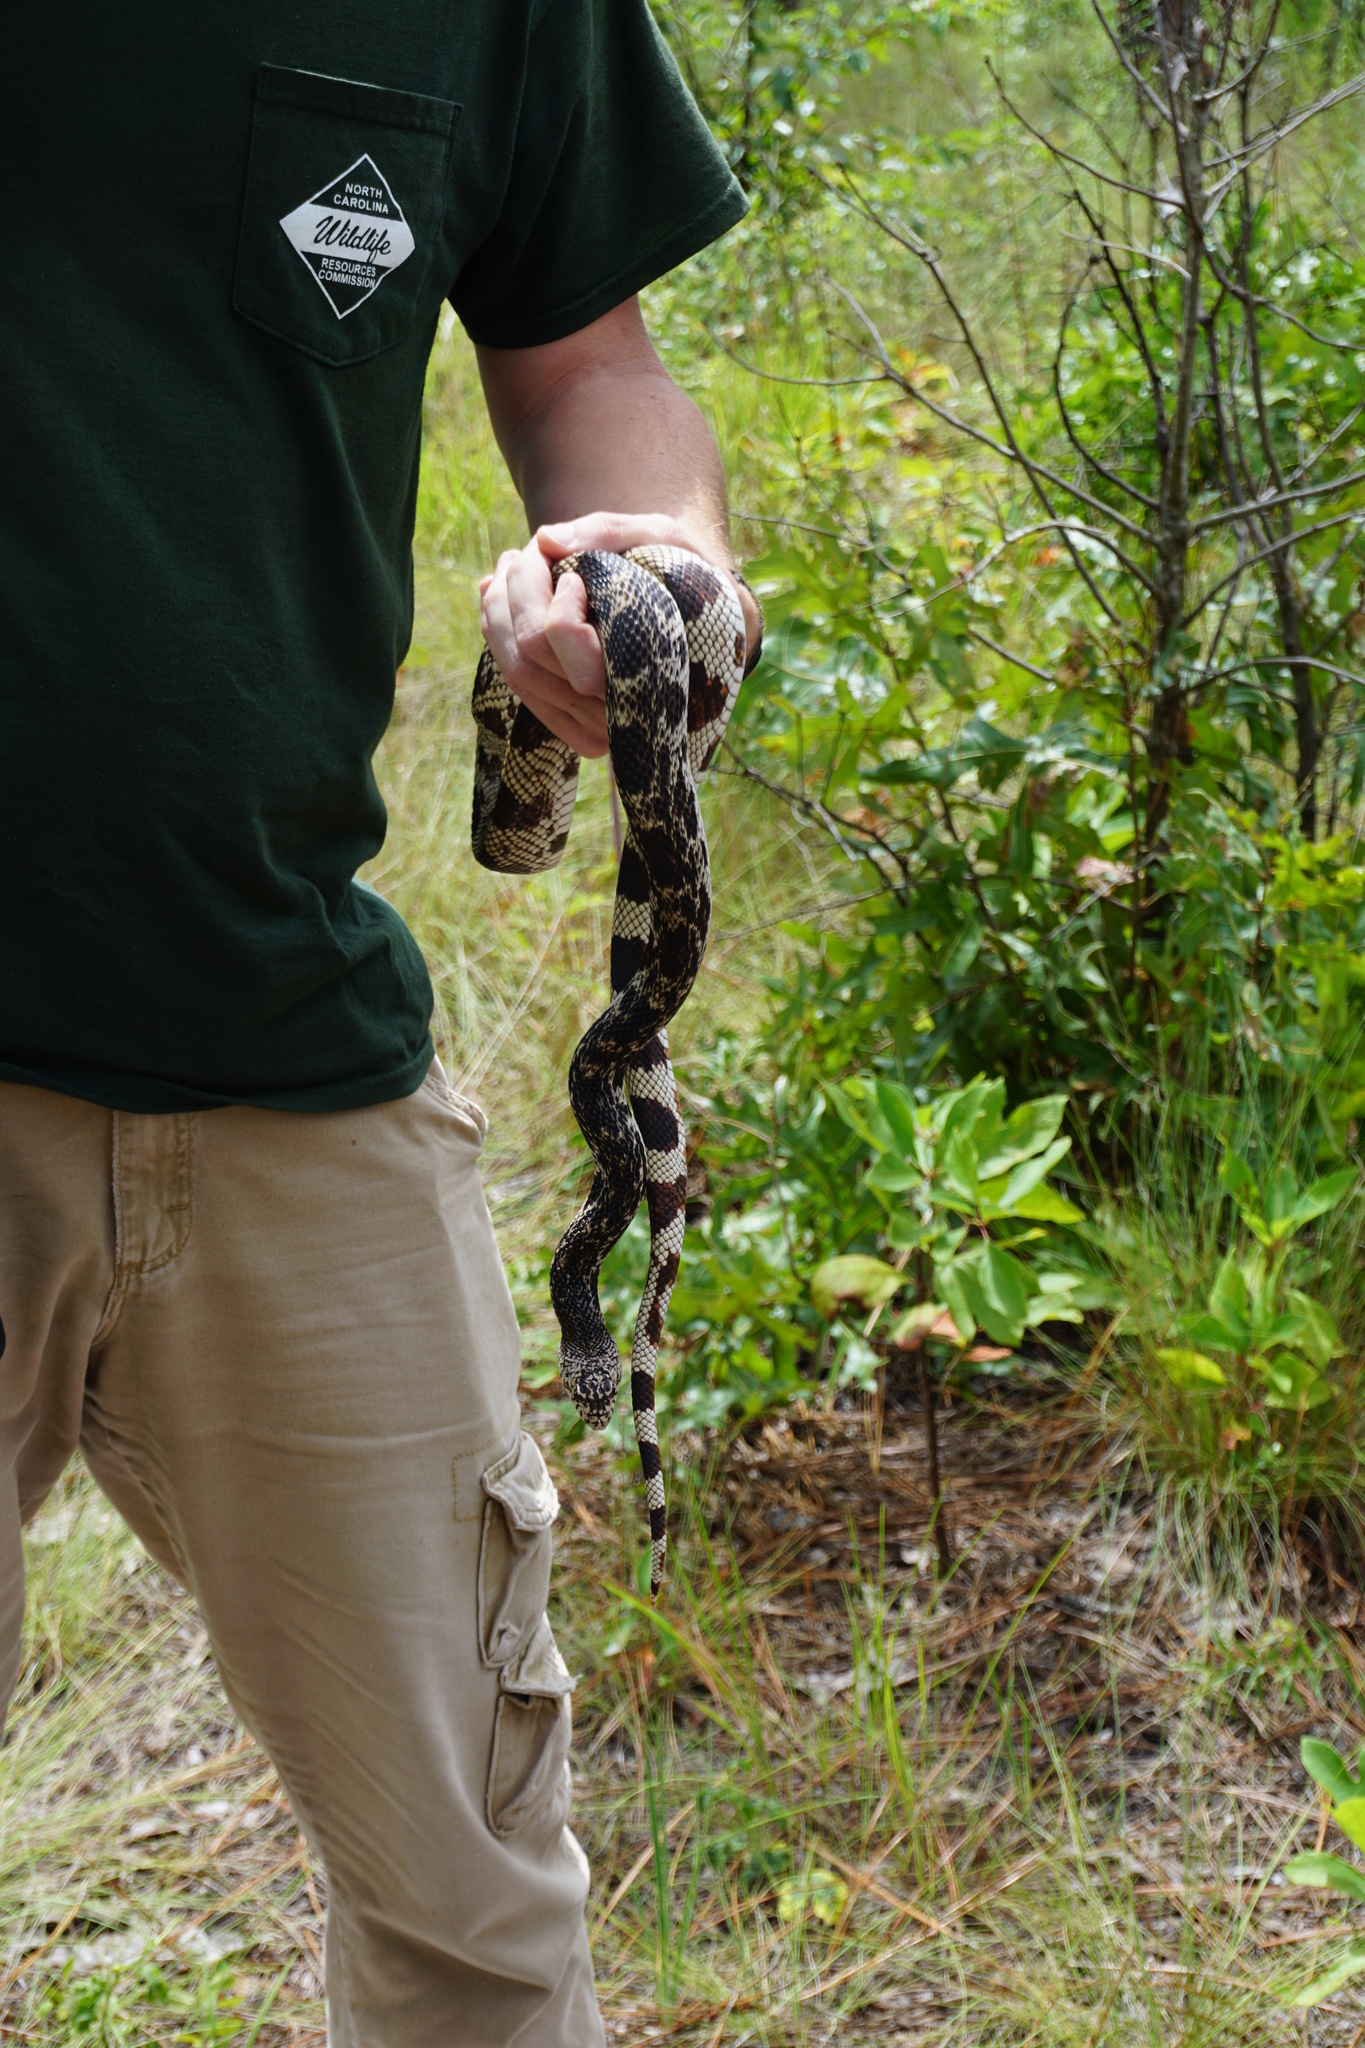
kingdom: Animalia
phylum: Chordata
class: Squamata
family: Colubridae
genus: Pituophis
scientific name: Pituophis melanoleucus
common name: Pine snake
